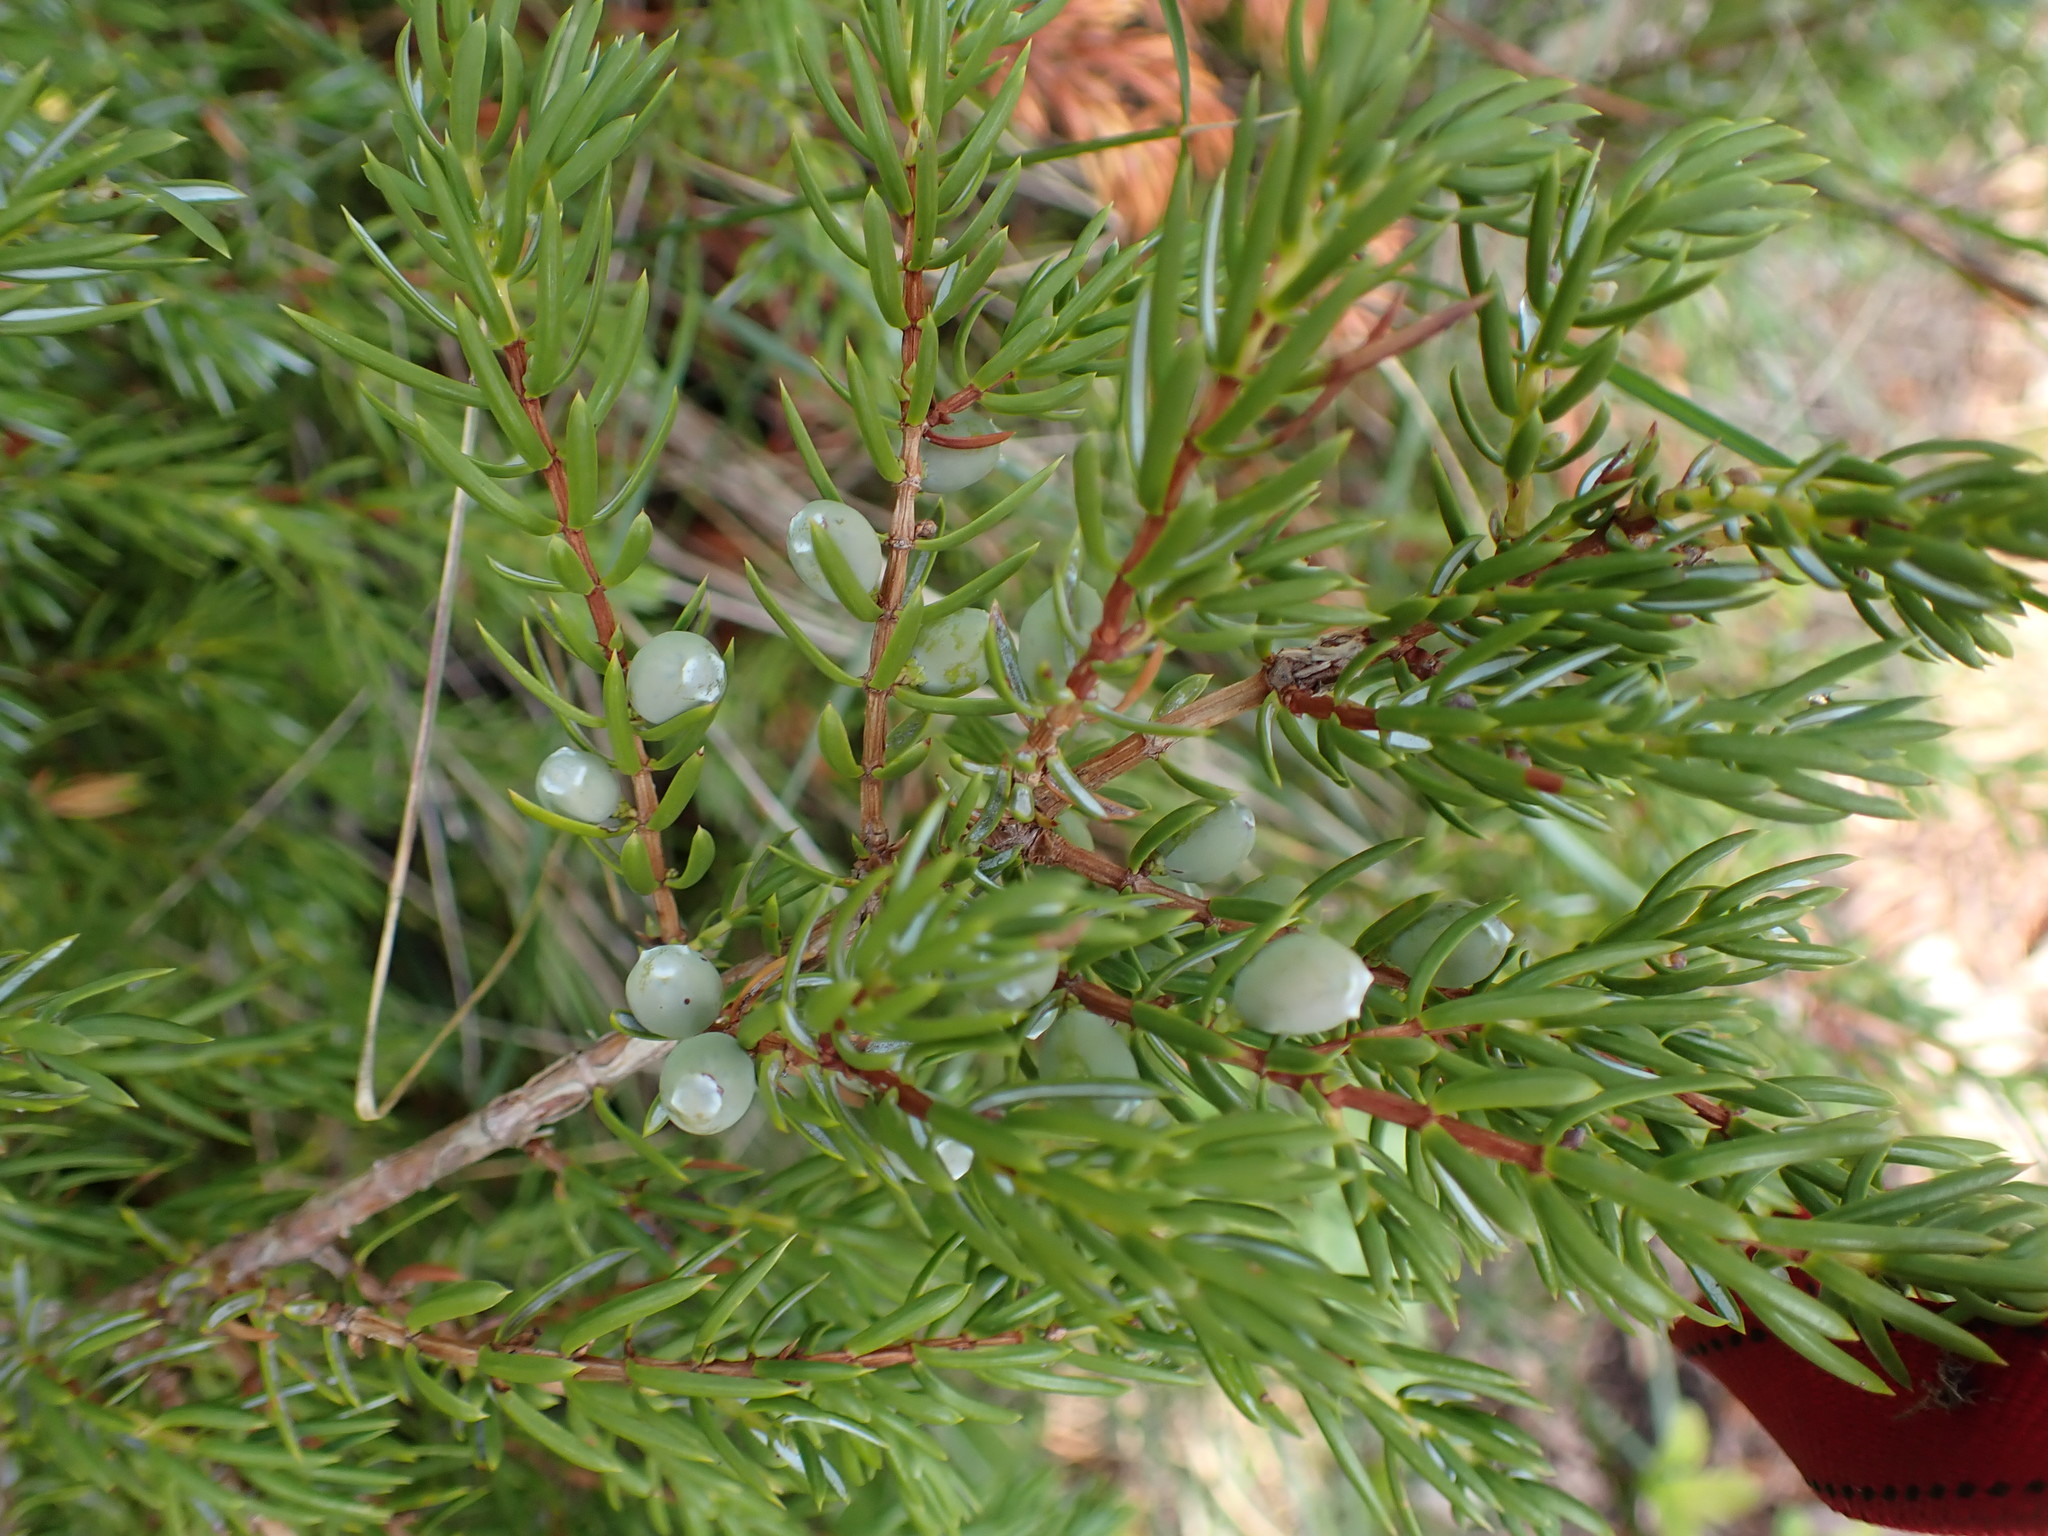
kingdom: Plantae
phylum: Tracheophyta
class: Pinopsida
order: Pinales
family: Cupressaceae
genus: Juniperus
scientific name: Juniperus communis
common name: Common juniper
